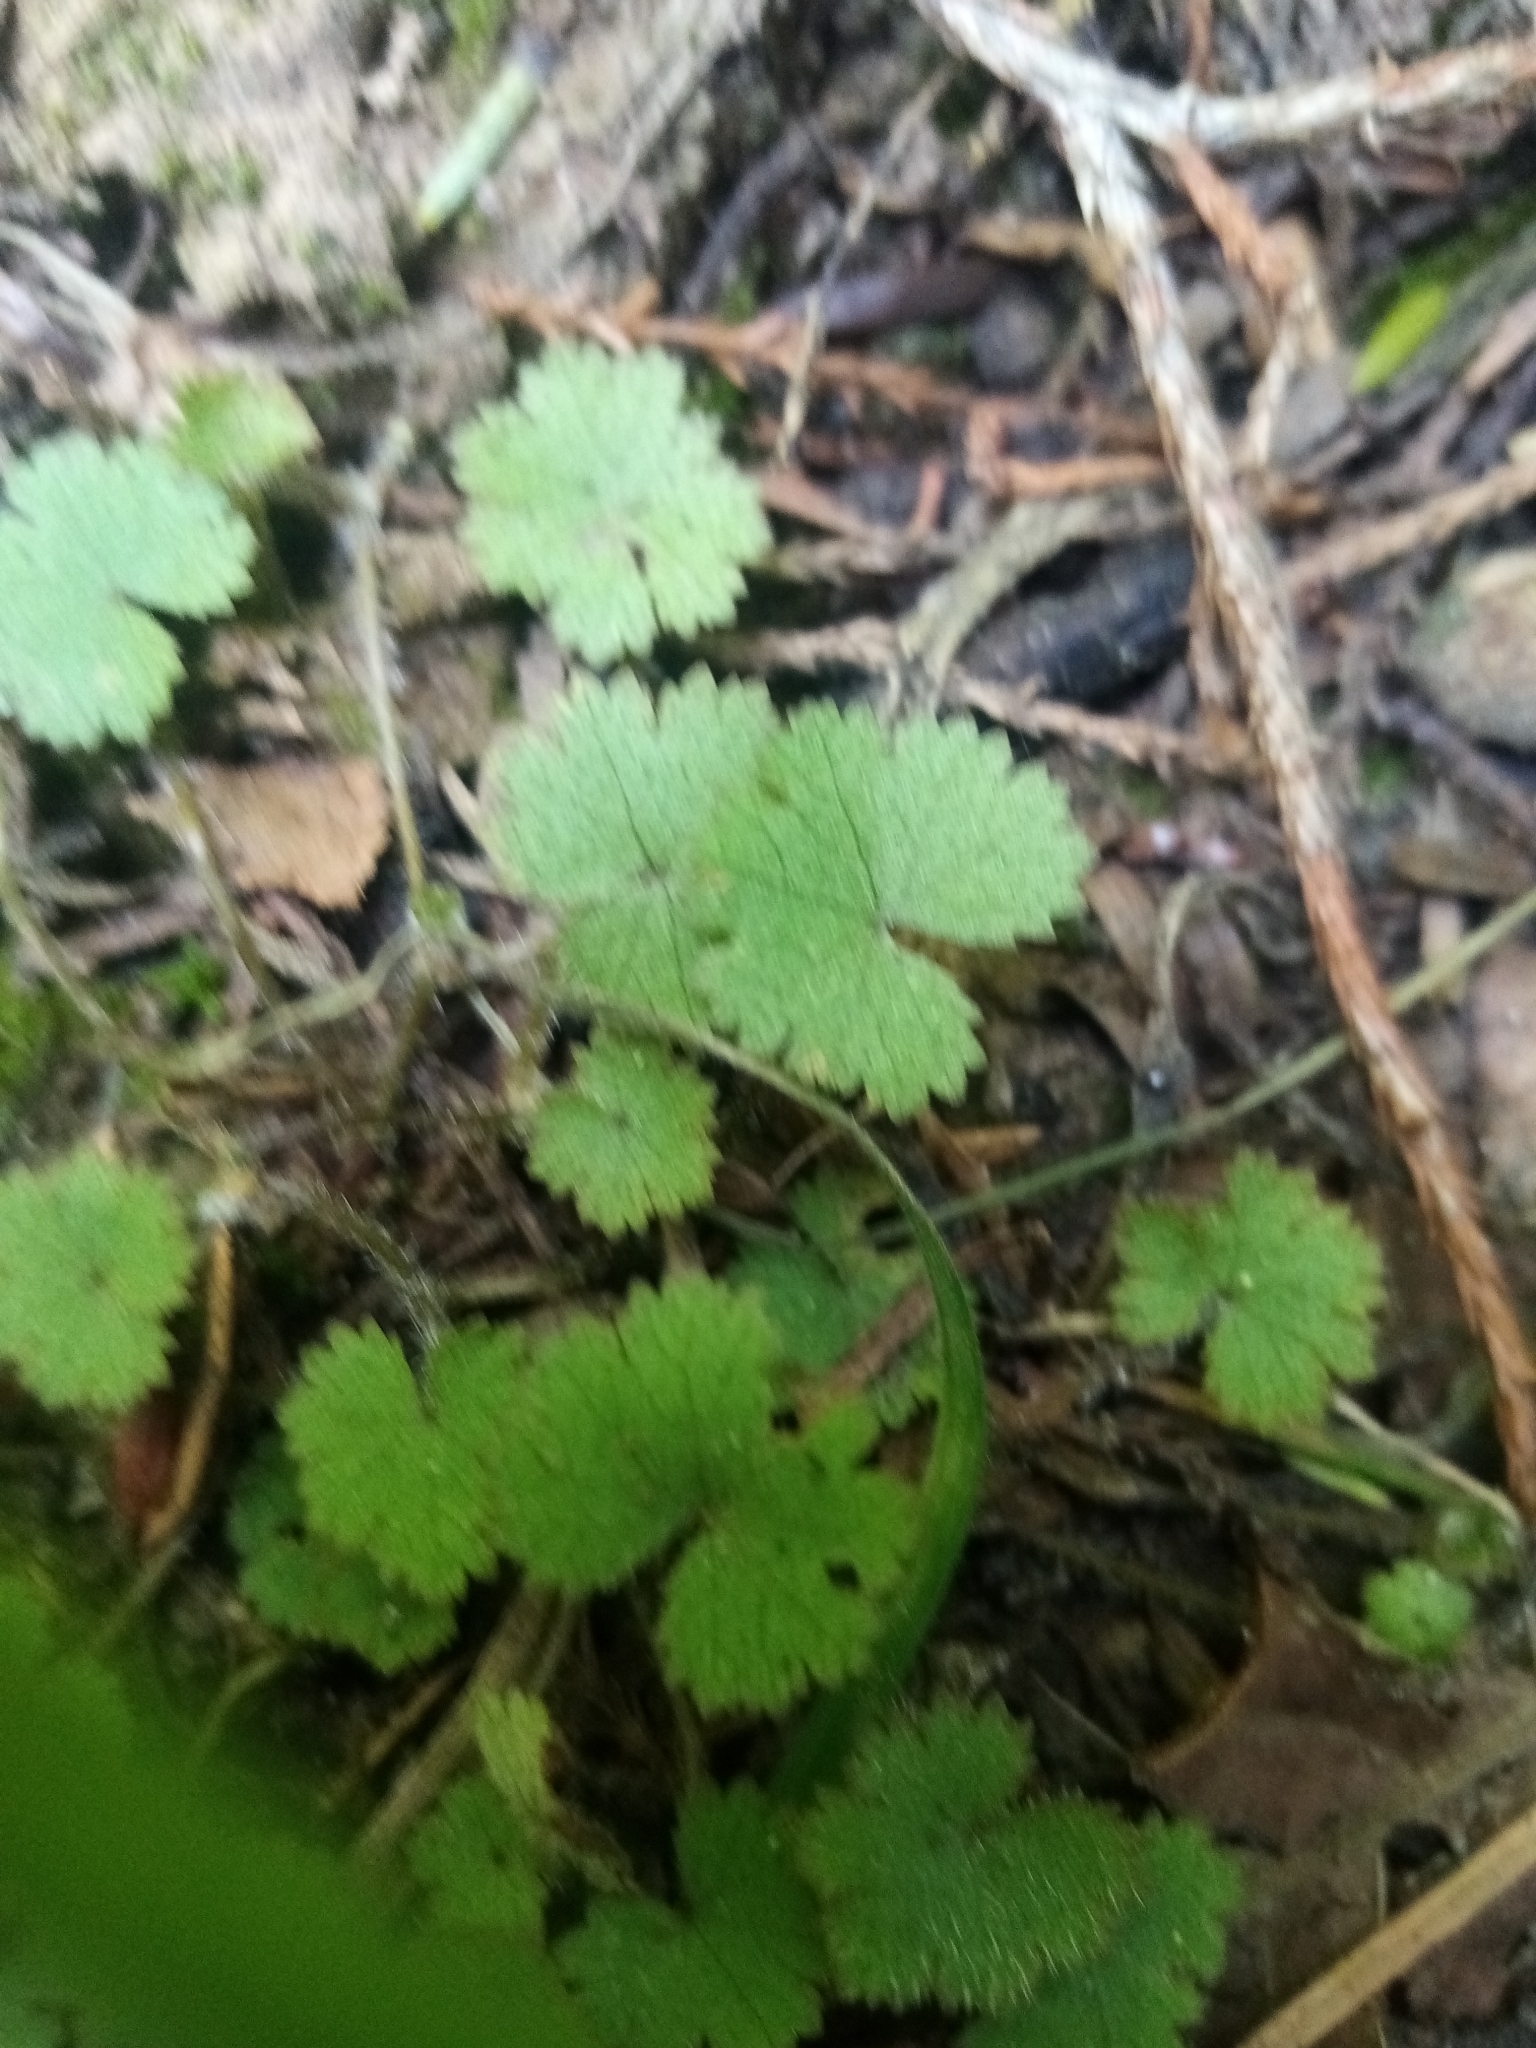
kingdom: Plantae
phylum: Tracheophyta
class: Magnoliopsida
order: Apiales
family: Araliaceae
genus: Hydrocotyle
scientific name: Hydrocotyle moschata
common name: Hairy pennywort
